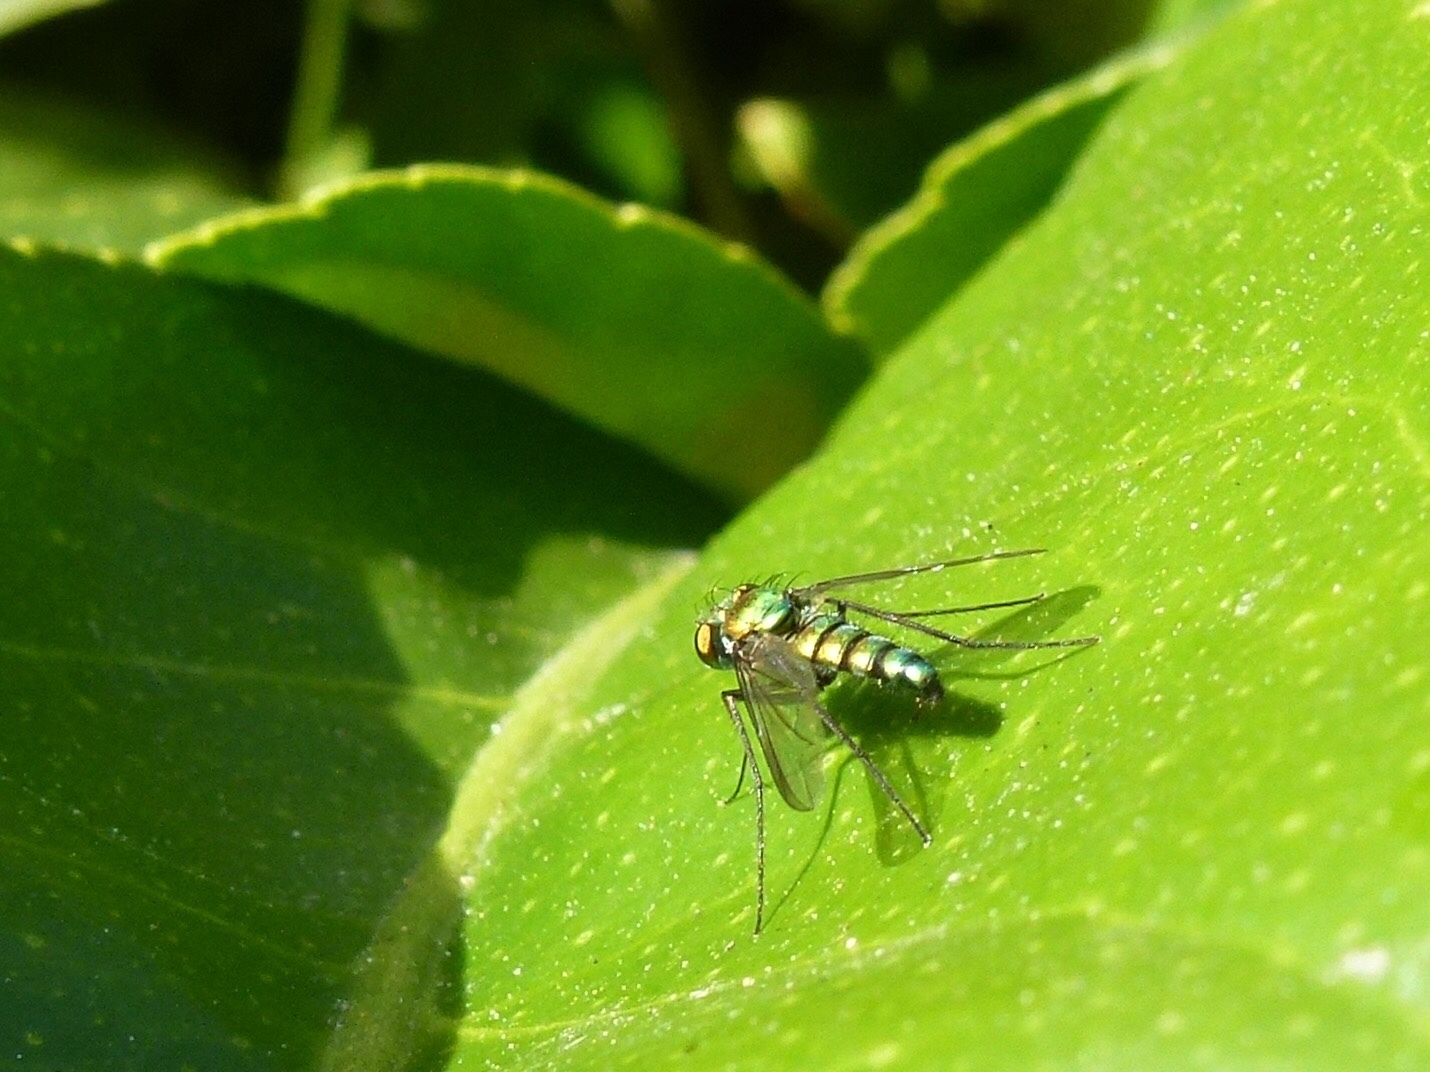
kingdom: Animalia
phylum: Arthropoda
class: Insecta
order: Diptera
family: Dolichopodidae
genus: Condylostylus
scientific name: Condylostylus longicornis
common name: Long-legged fly
